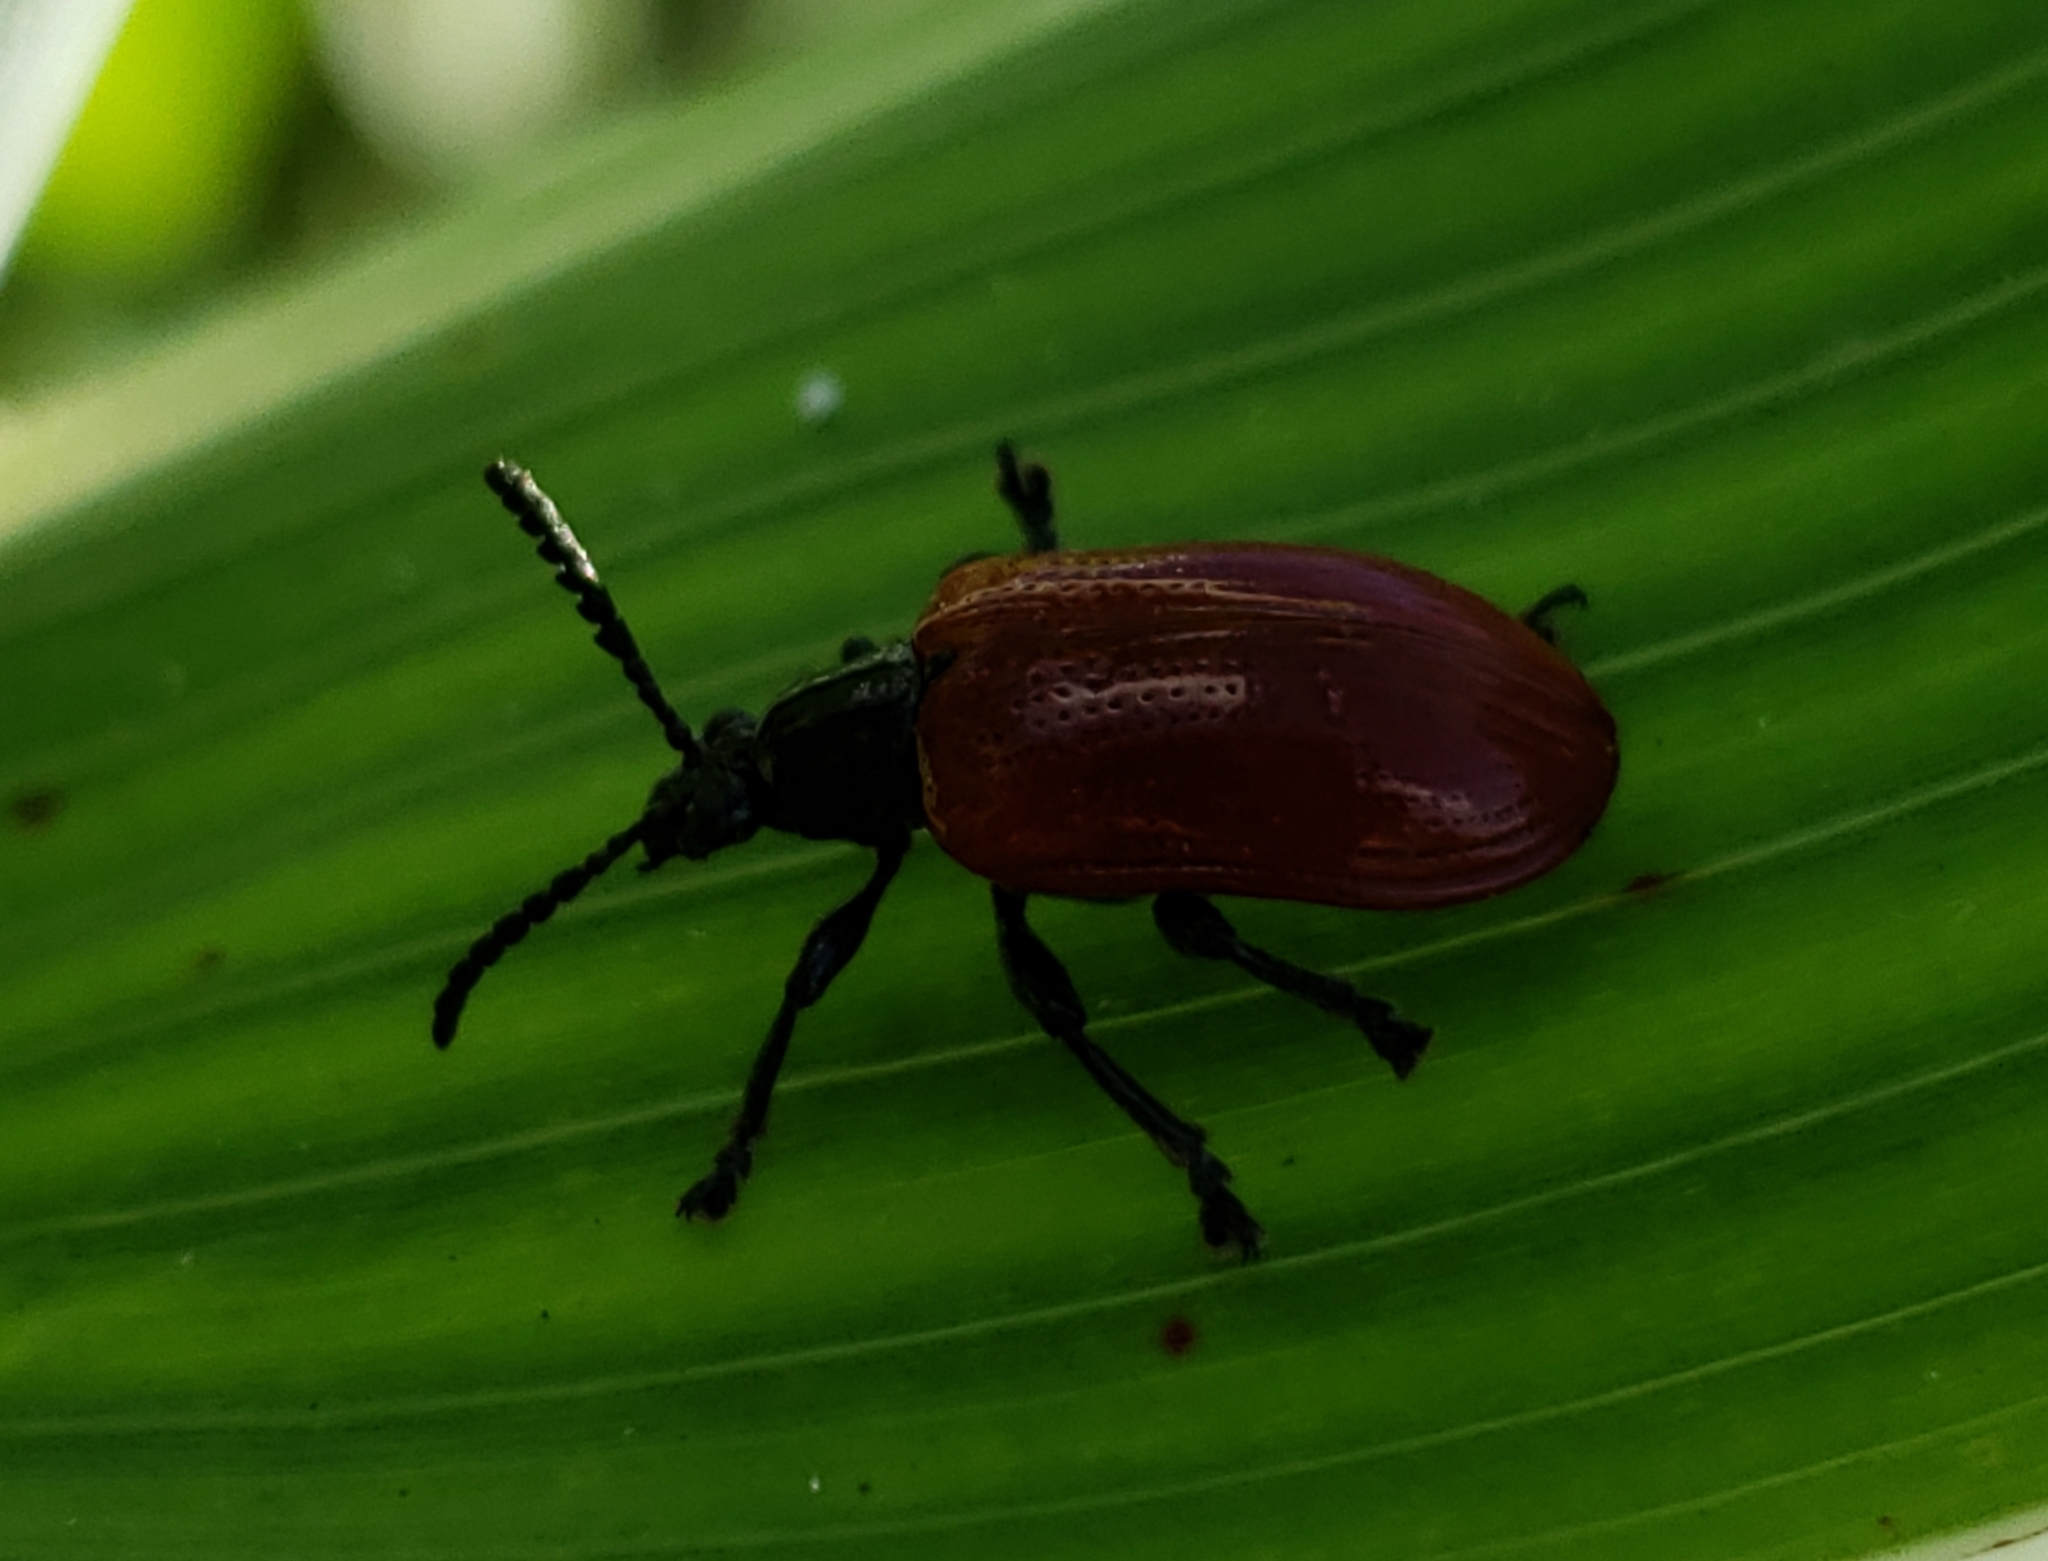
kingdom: Animalia
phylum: Arthropoda
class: Insecta
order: Coleoptera
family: Chrysomelidae
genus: Lilioceris
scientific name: Lilioceris cheni
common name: Leaf beetle
